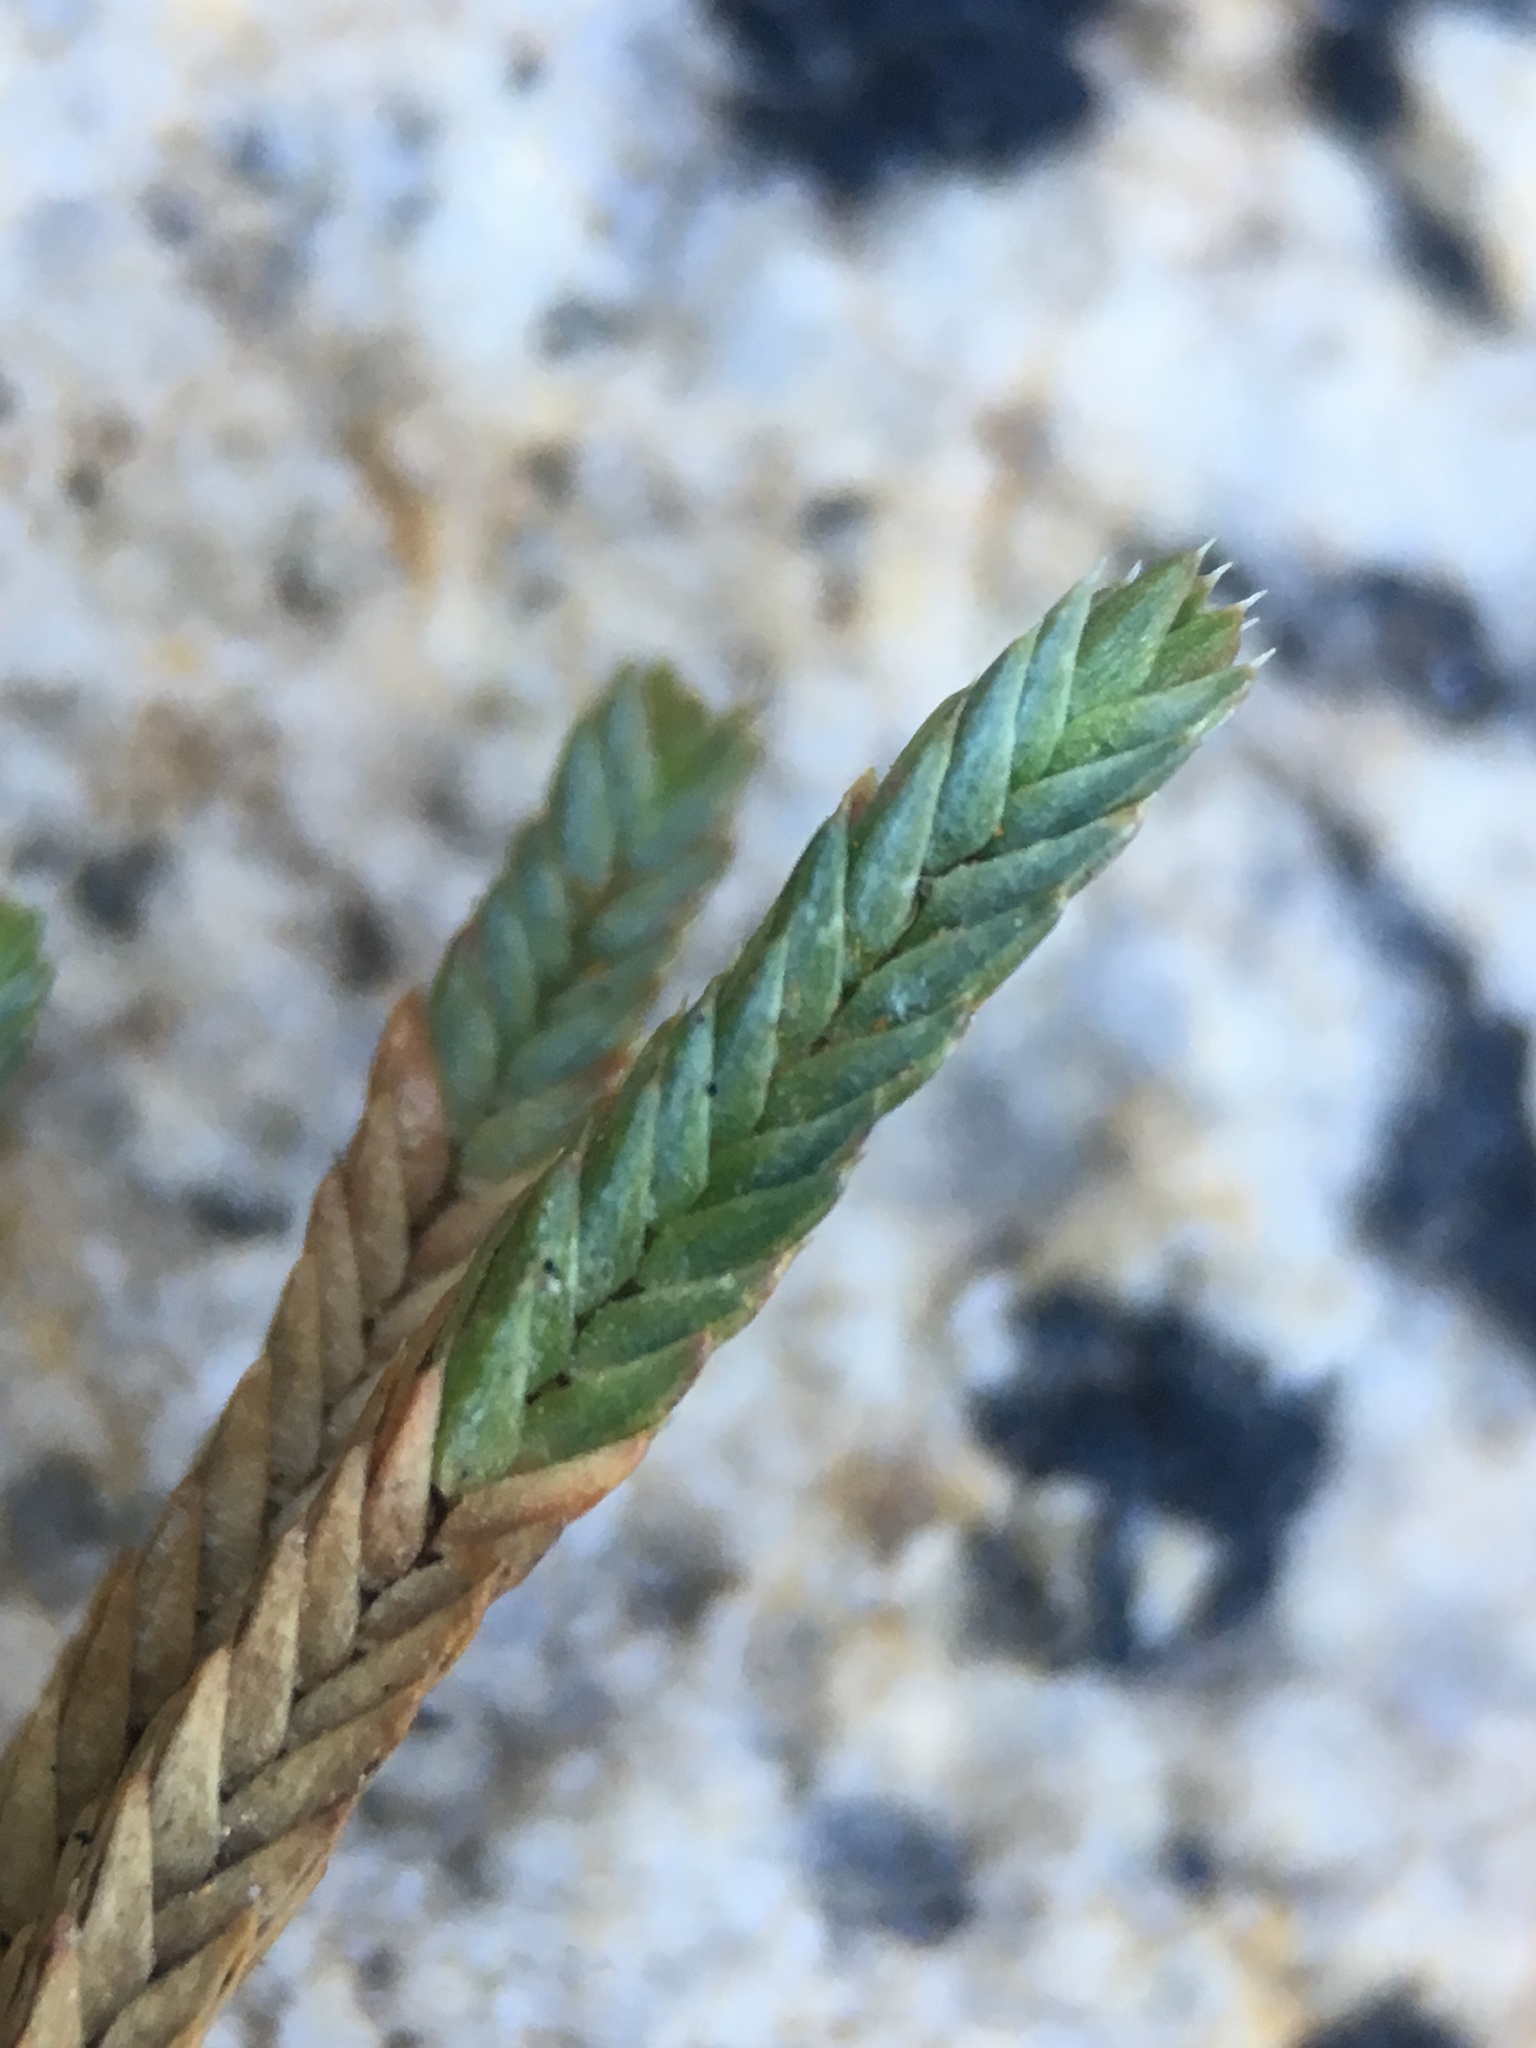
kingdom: Plantae
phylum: Tracheophyta
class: Lycopodiopsida
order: Selaginellales
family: Selaginellaceae
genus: Selaginella
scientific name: Selaginella watsonii
